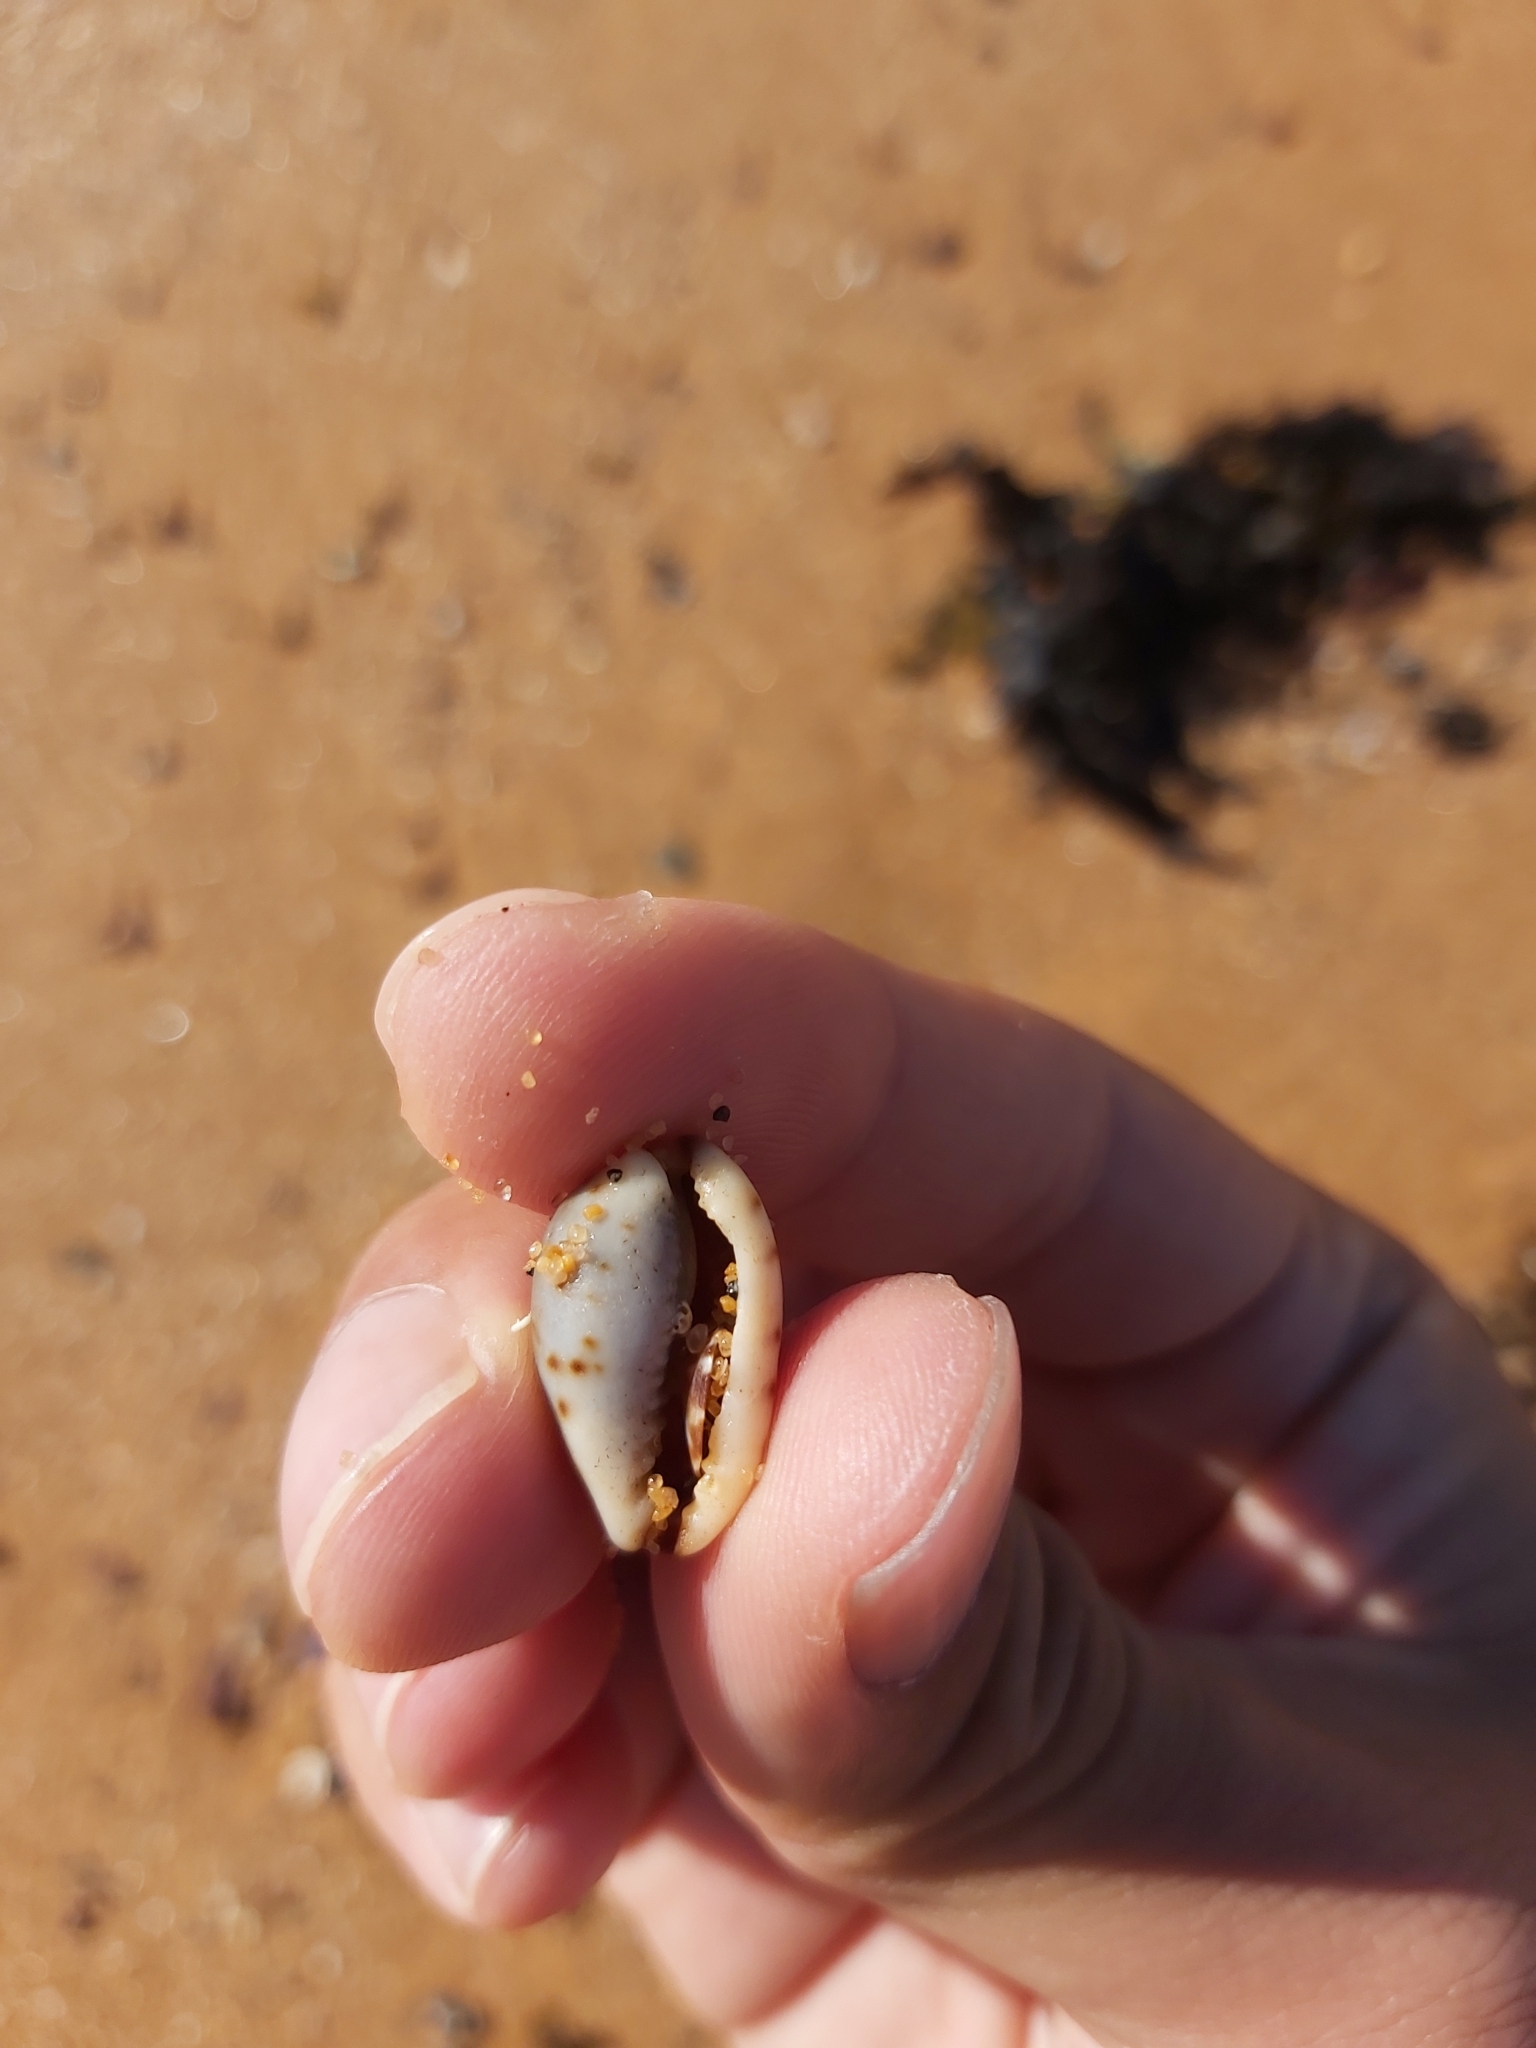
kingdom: Animalia
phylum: Mollusca
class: Gastropoda
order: Littorinimorpha
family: Cypraeidae
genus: Purpuradusta
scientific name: Purpuradusta gracilis
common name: Graceful cowrie
